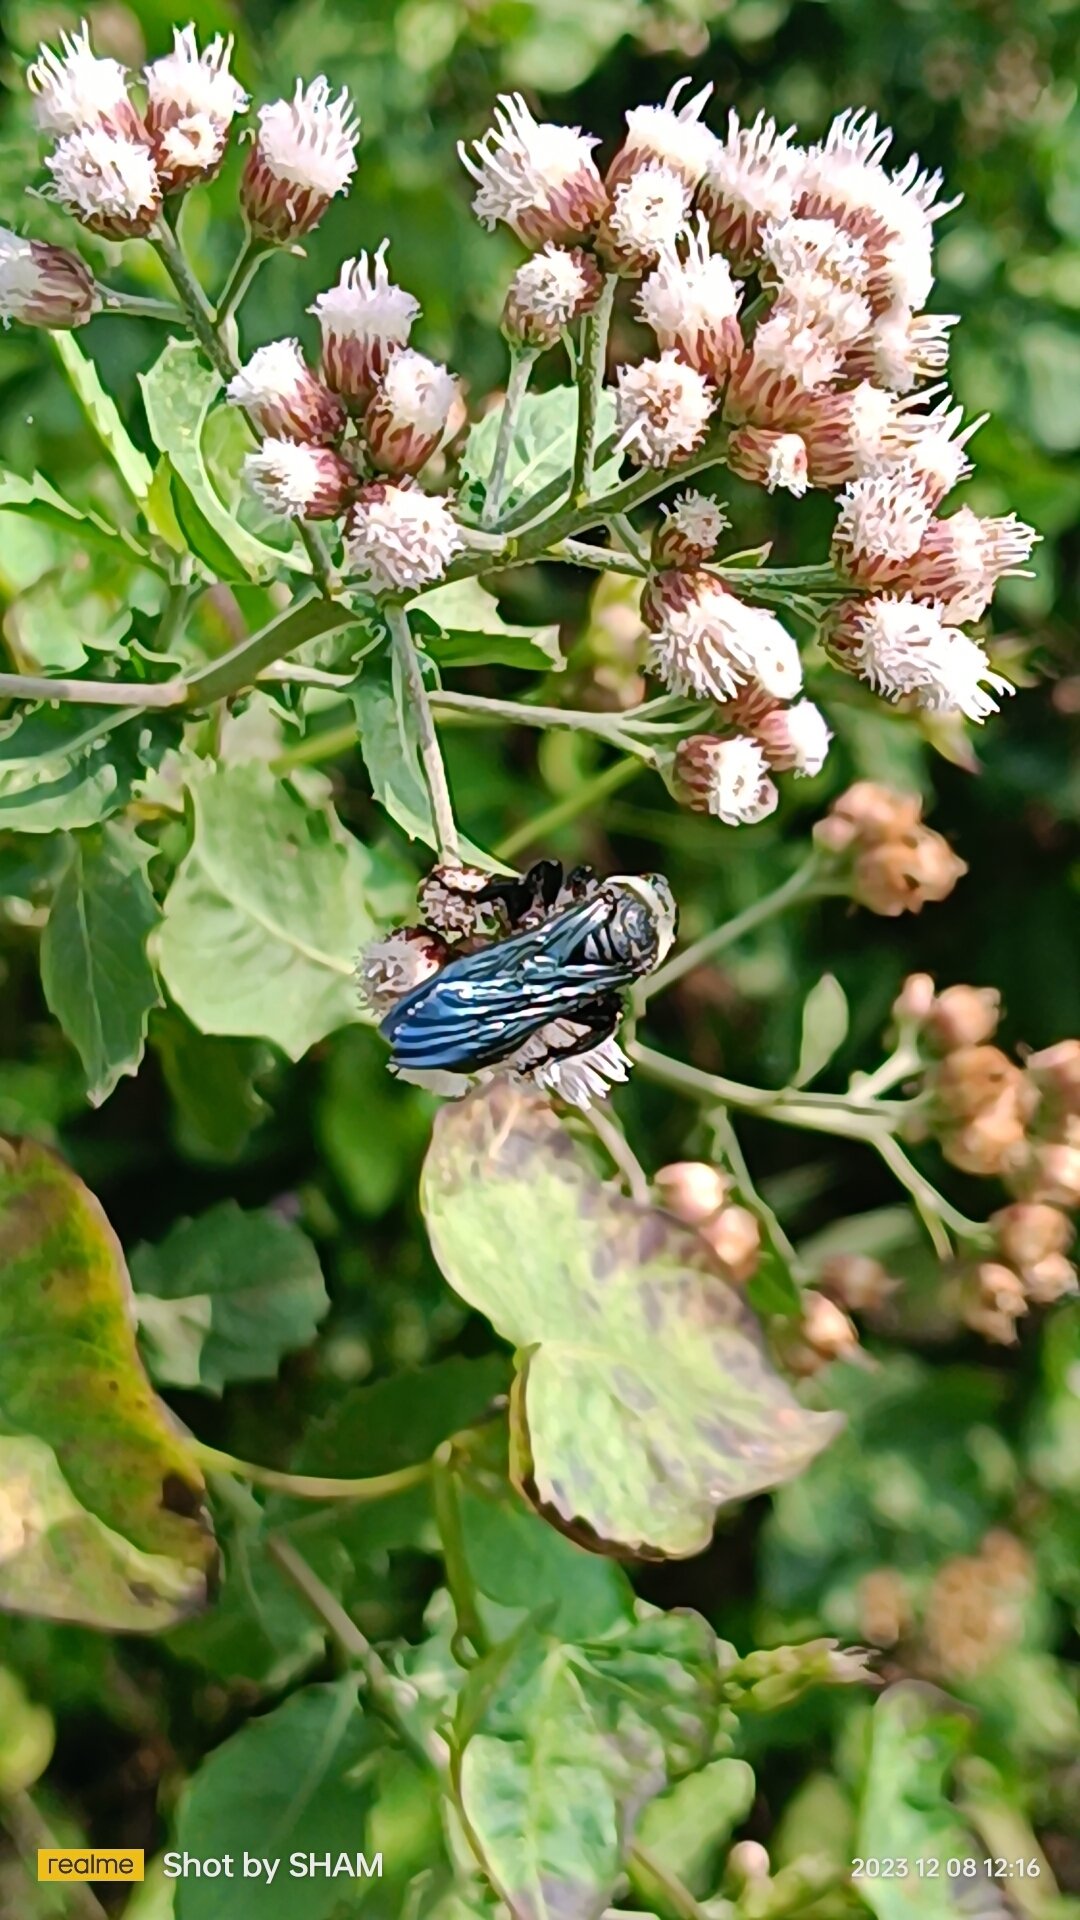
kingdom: Animalia
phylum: Arthropoda
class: Insecta
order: Hymenoptera
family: Scoliidae
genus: Campsomeriella
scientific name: Campsomeriella collaris
